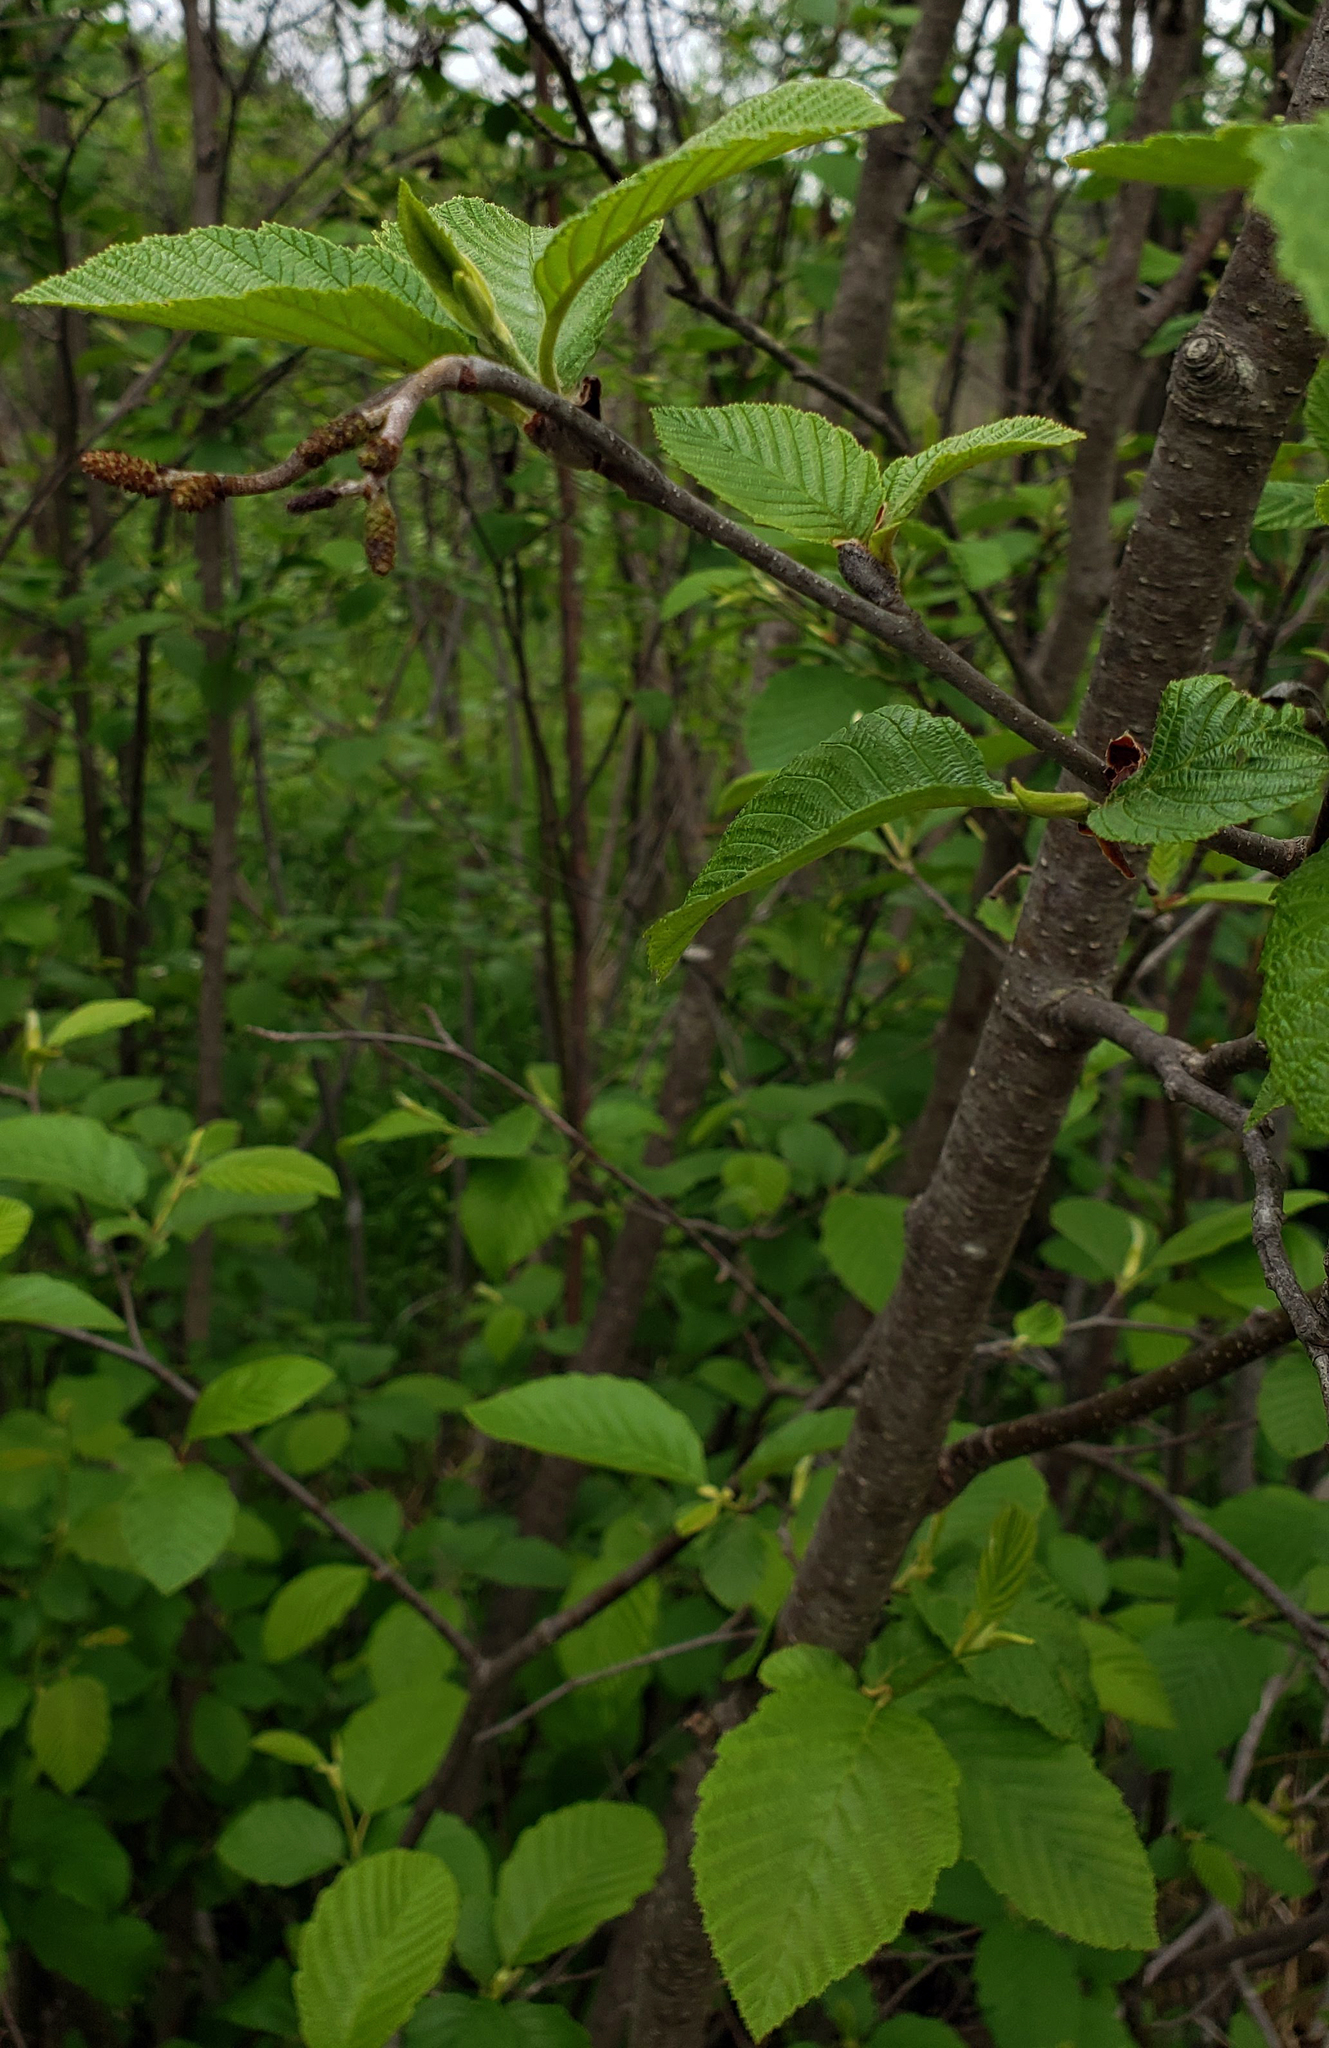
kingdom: Plantae
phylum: Tracheophyta
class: Magnoliopsida
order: Fagales
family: Betulaceae
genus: Alnus
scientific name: Alnus incana
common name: Grey alder
